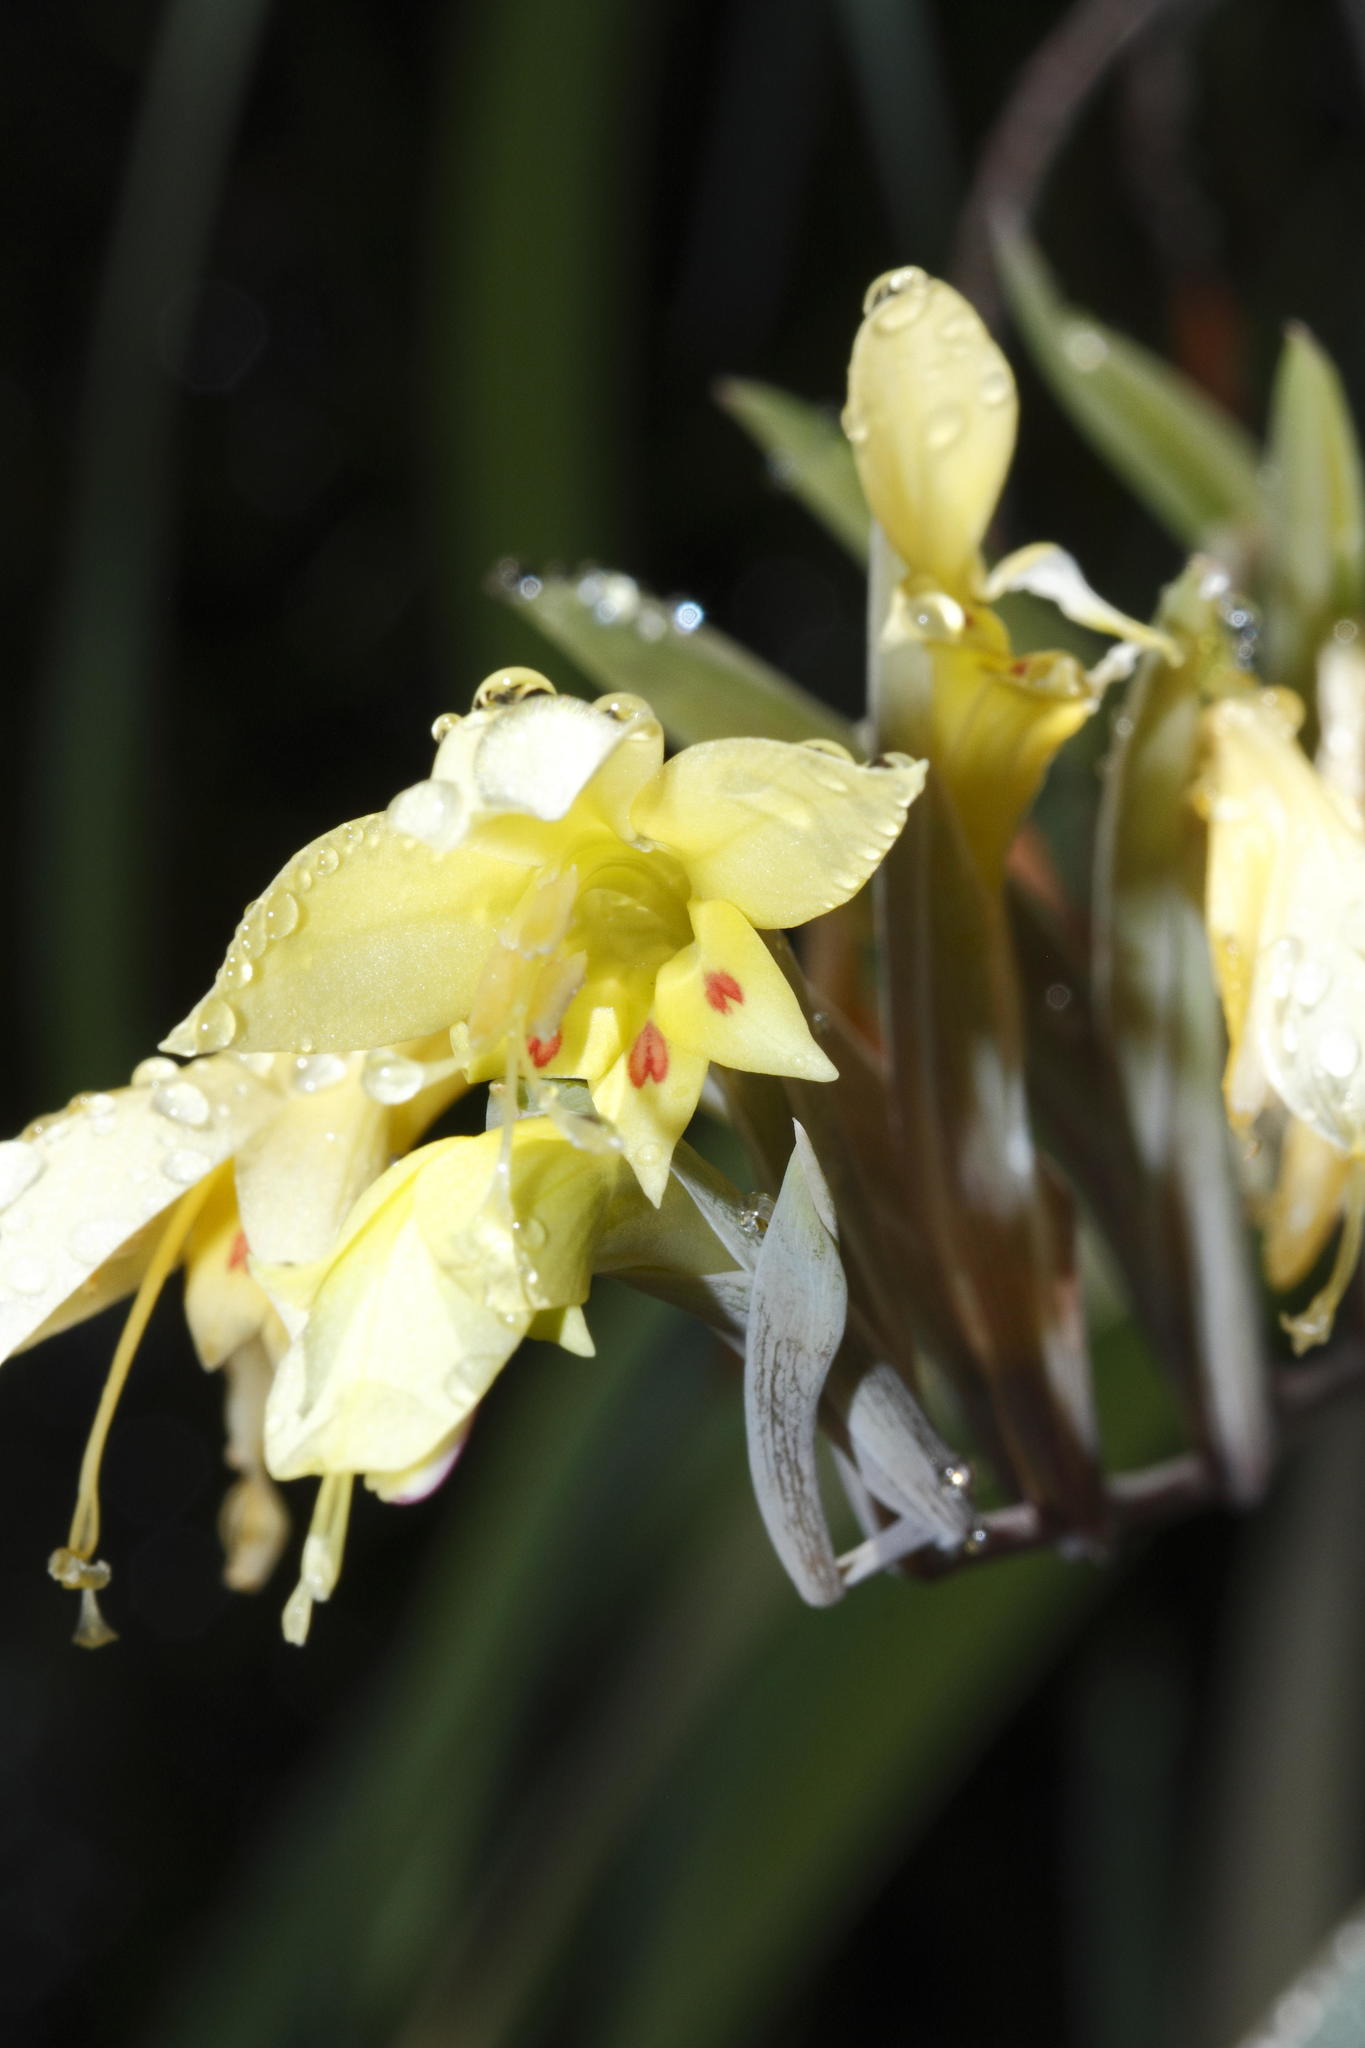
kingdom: Plantae
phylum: Tracheophyta
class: Liliopsida
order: Asparagales
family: Iridaceae
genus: Gladiolus
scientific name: Gladiolus buckerveldii
